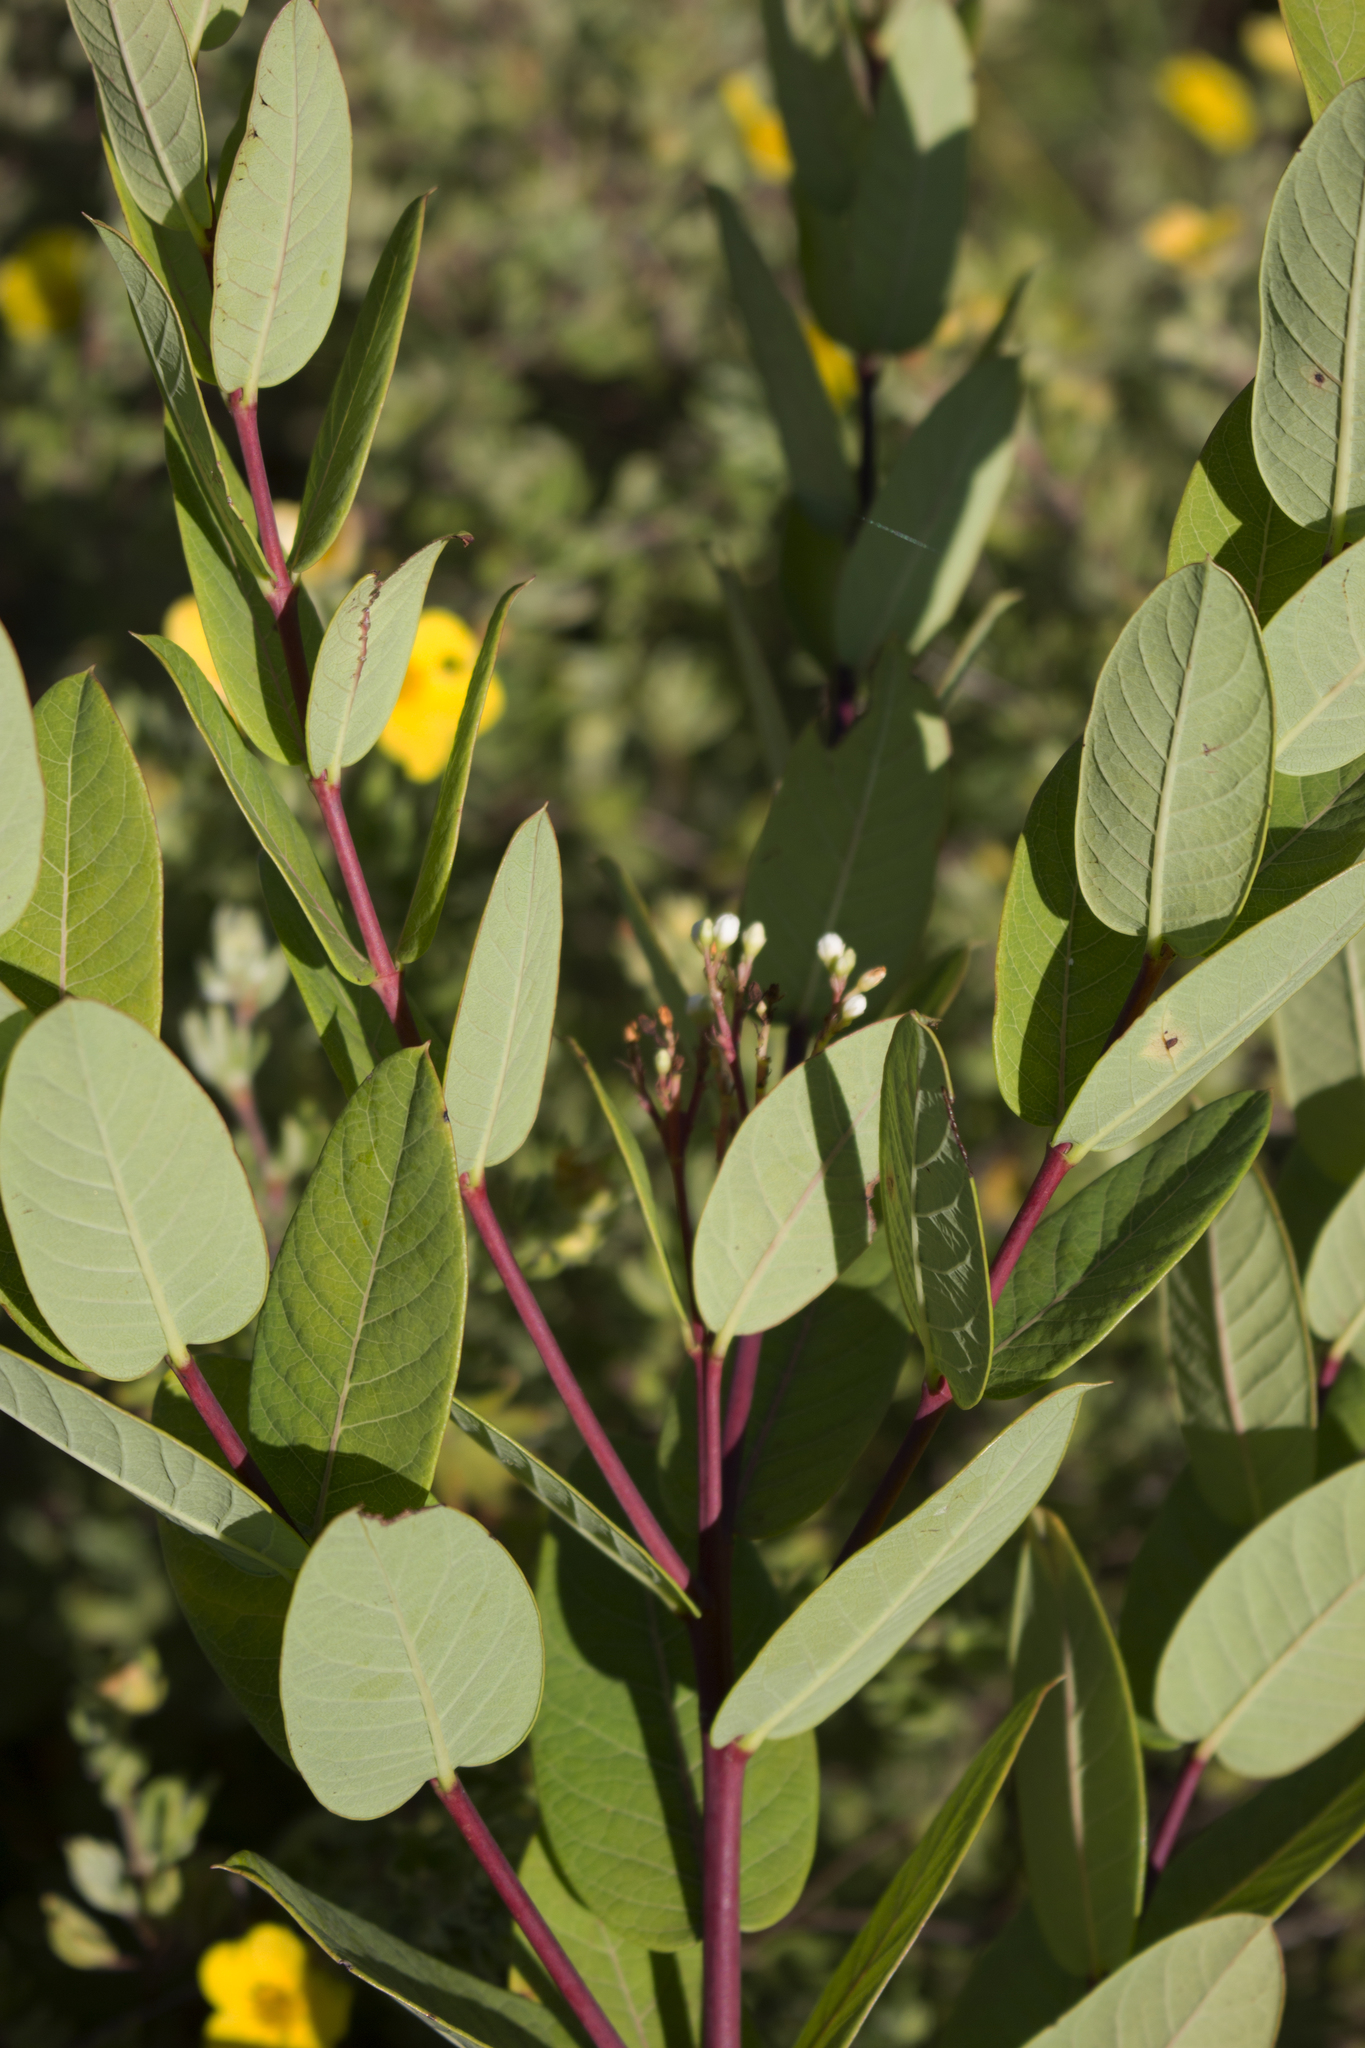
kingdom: Plantae
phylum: Tracheophyta
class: Magnoliopsida
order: Gentianales
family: Apocynaceae
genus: Apocynum
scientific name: Apocynum cannabinum
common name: Hemp dogbane
